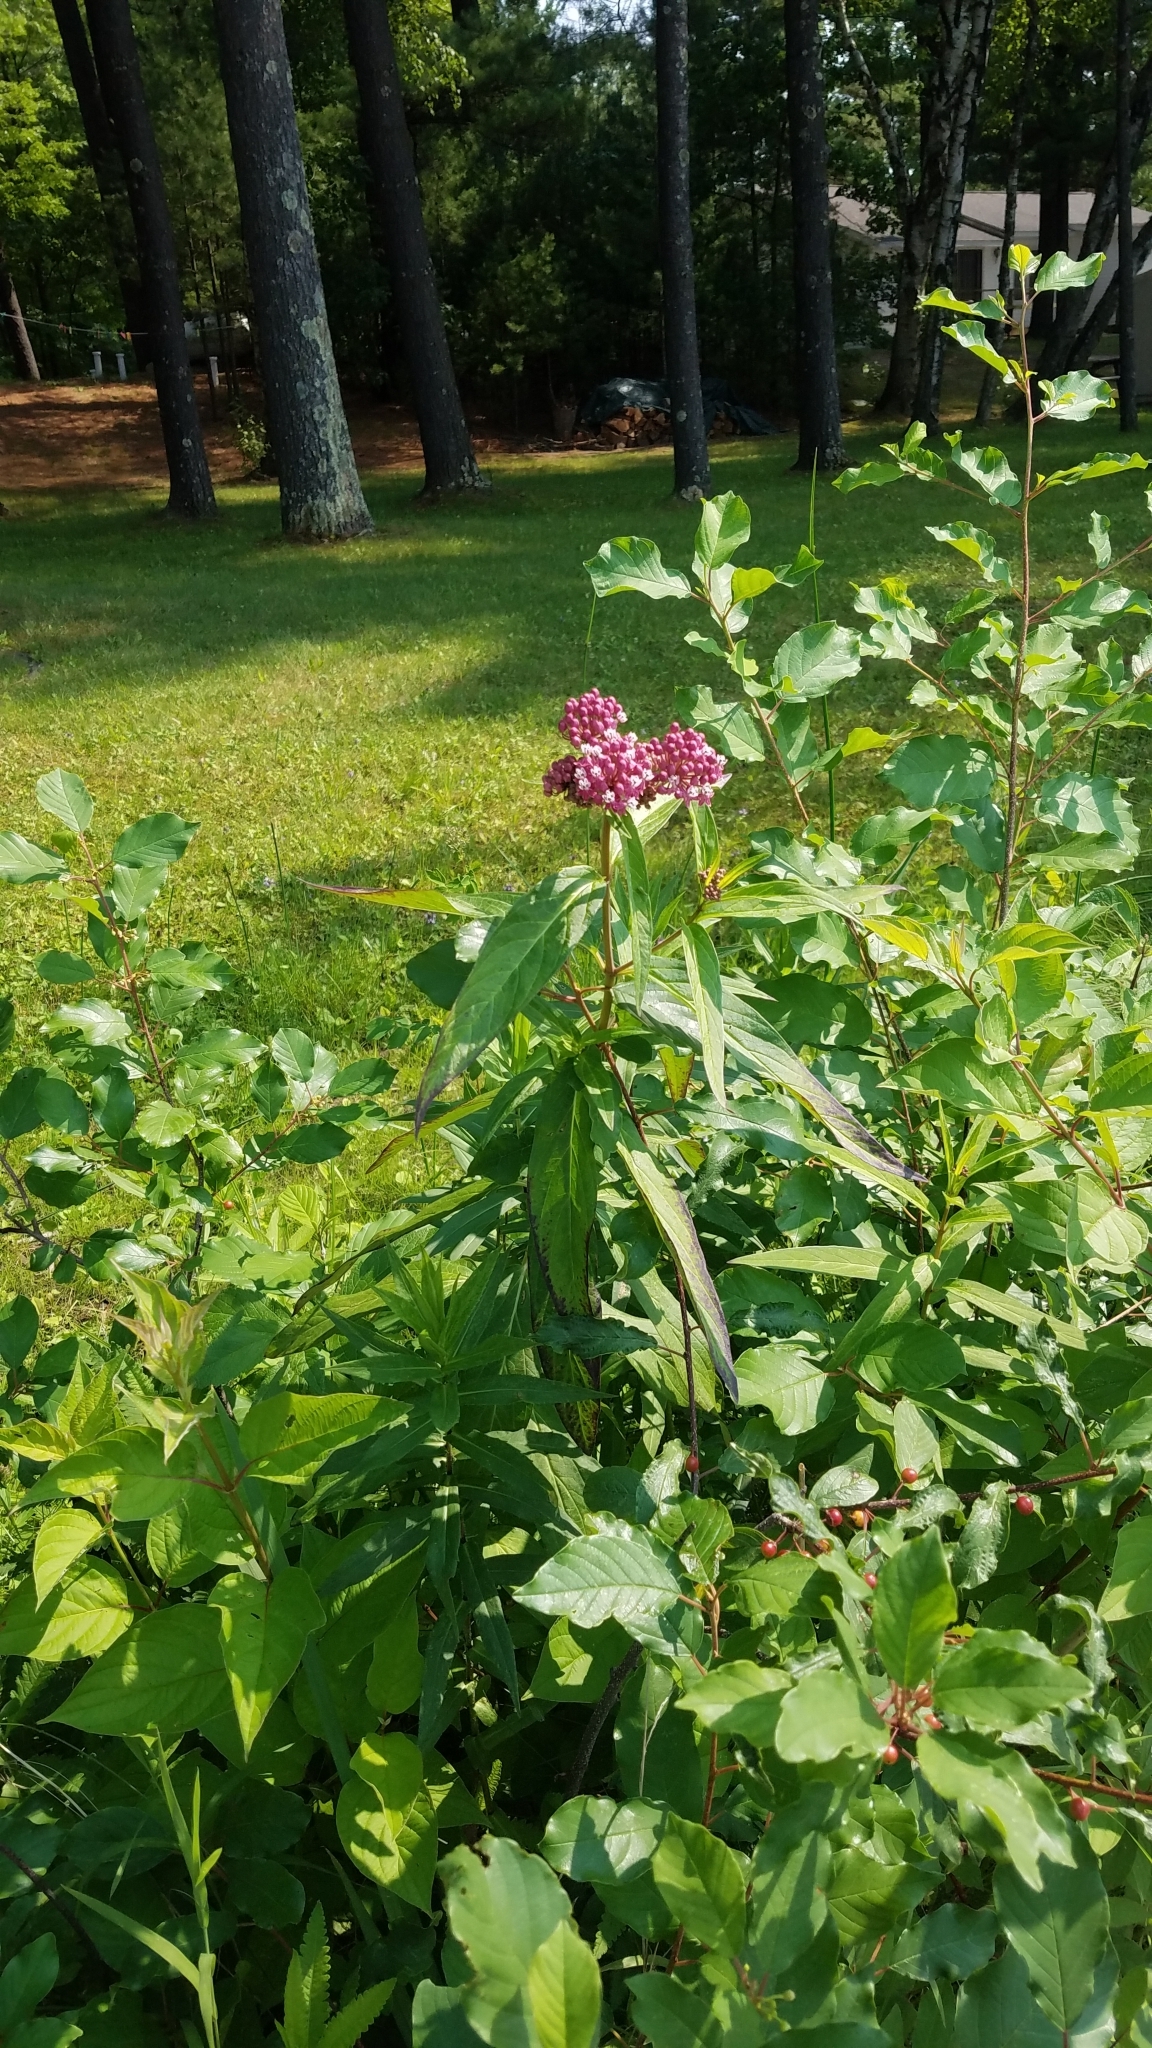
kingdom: Plantae
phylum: Tracheophyta
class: Magnoliopsida
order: Gentianales
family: Apocynaceae
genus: Asclepias
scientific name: Asclepias incarnata
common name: Swamp milkweed
